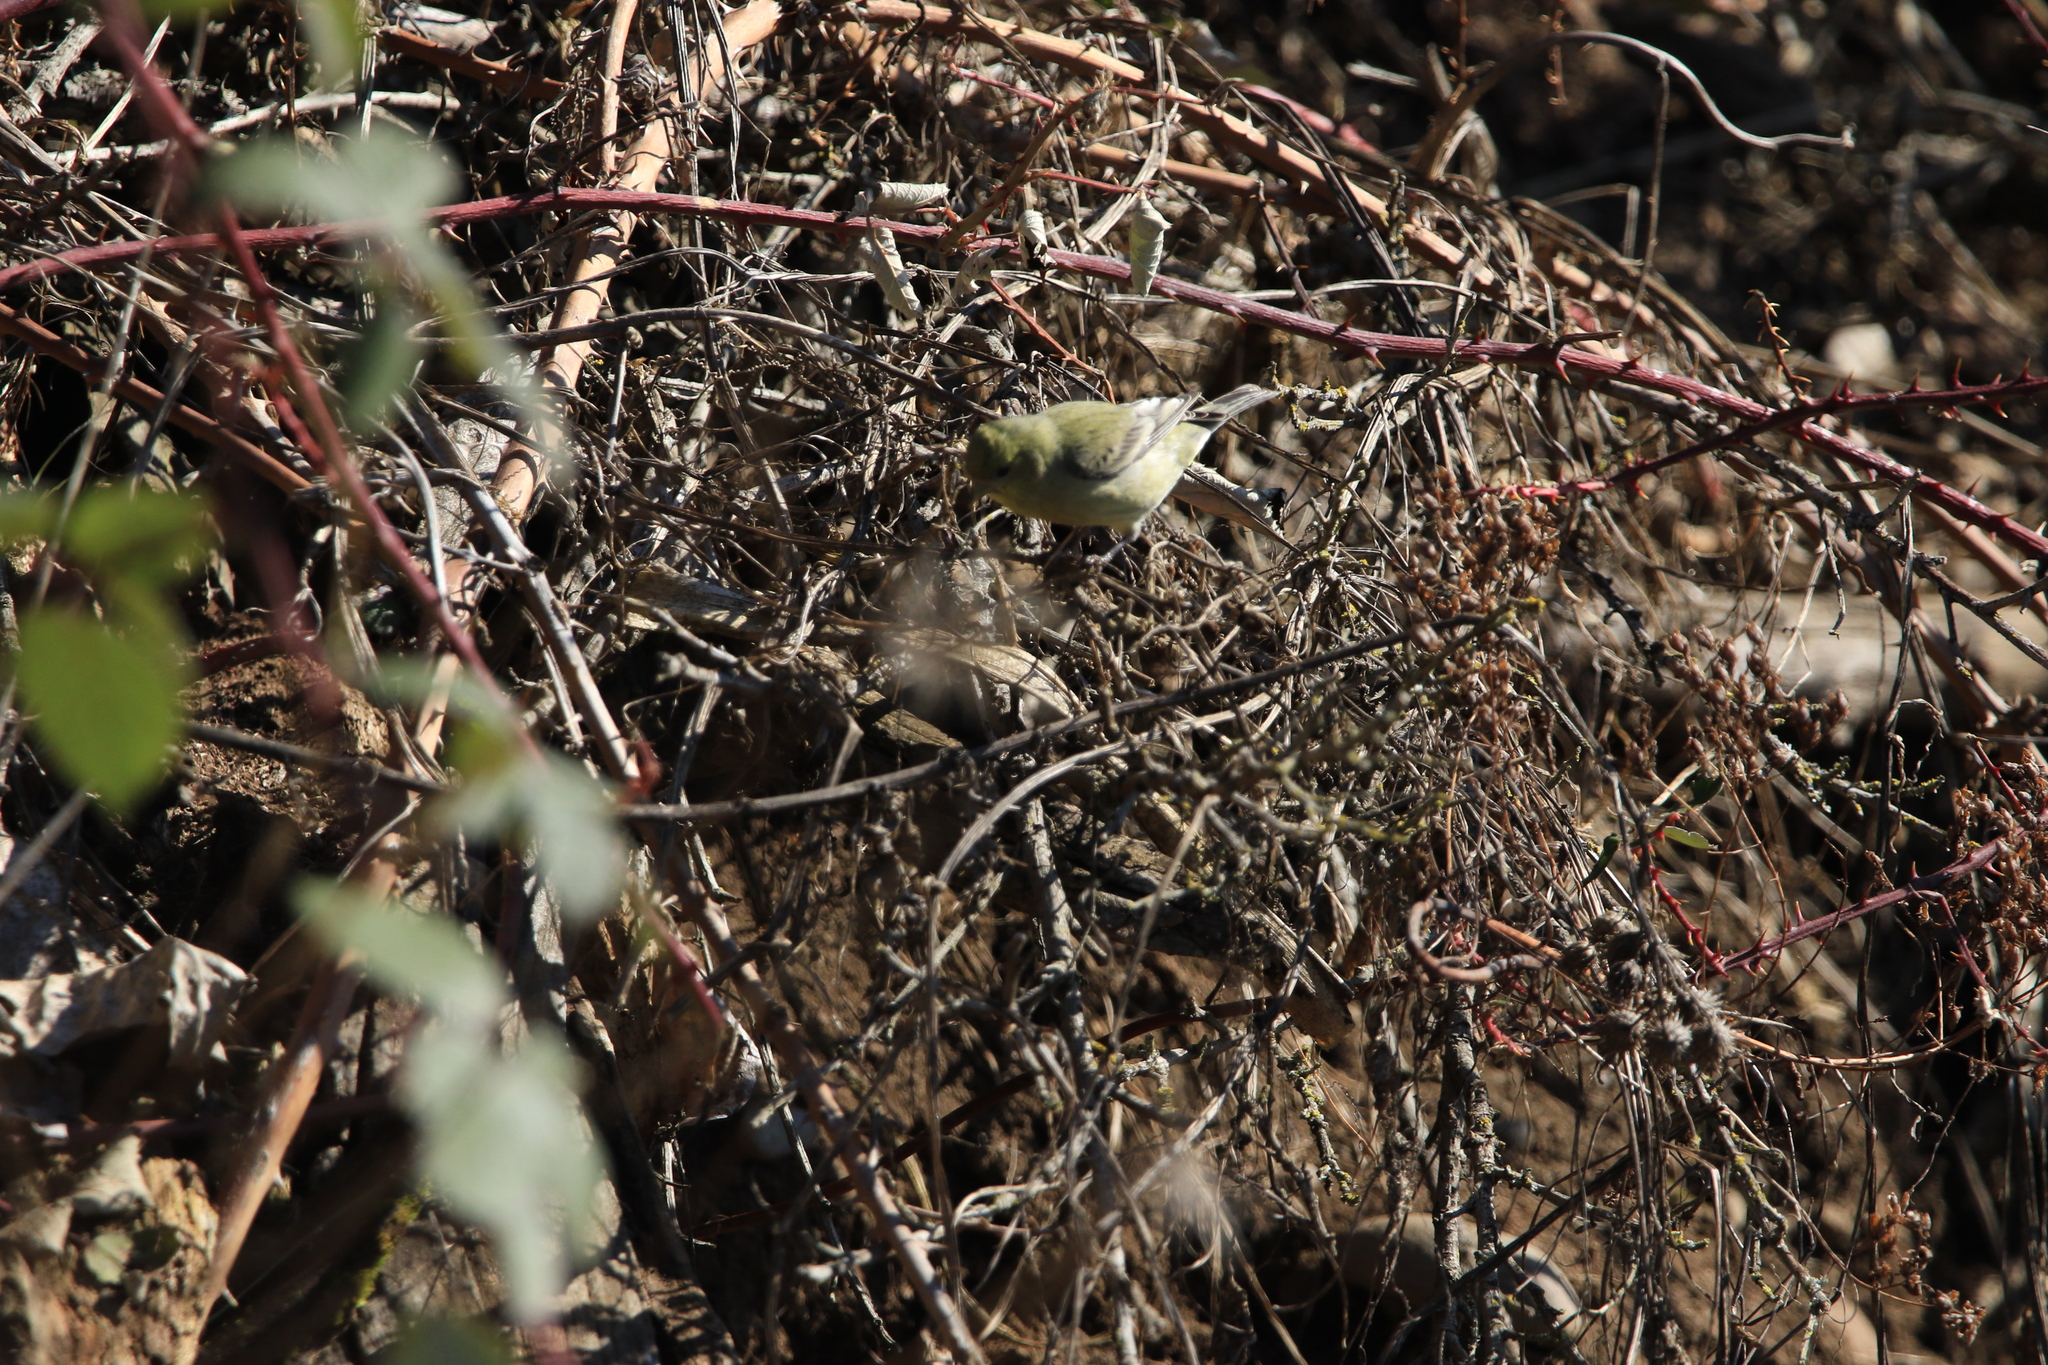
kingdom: Animalia
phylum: Chordata
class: Aves
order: Passeriformes
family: Fringillidae
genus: Spinus
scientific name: Spinus psaltria
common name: Lesser goldfinch
